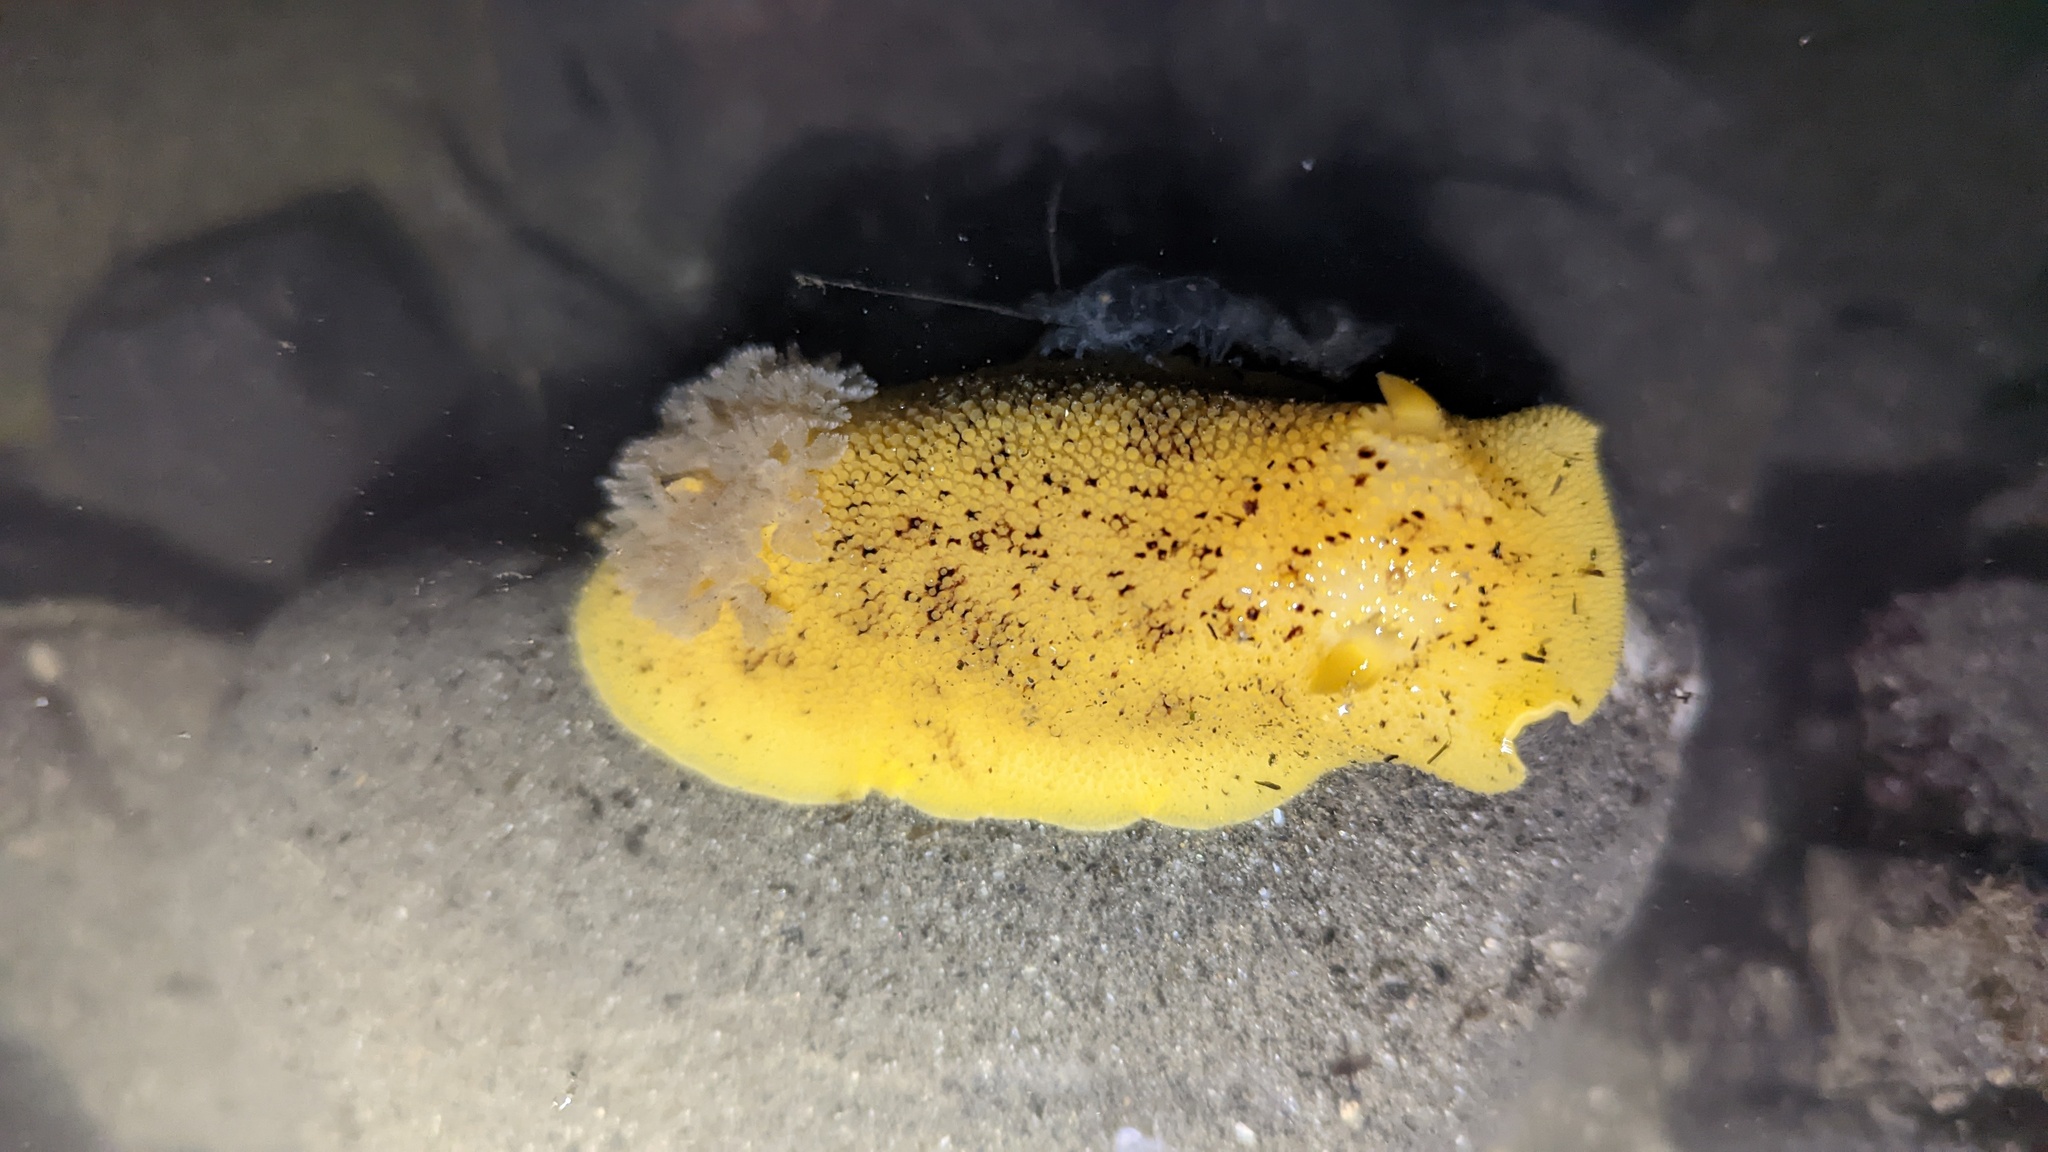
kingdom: Animalia
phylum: Mollusca
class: Gastropoda
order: Nudibranchia
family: Discodorididae
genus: Peltodoris
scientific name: Peltodoris nobilis
